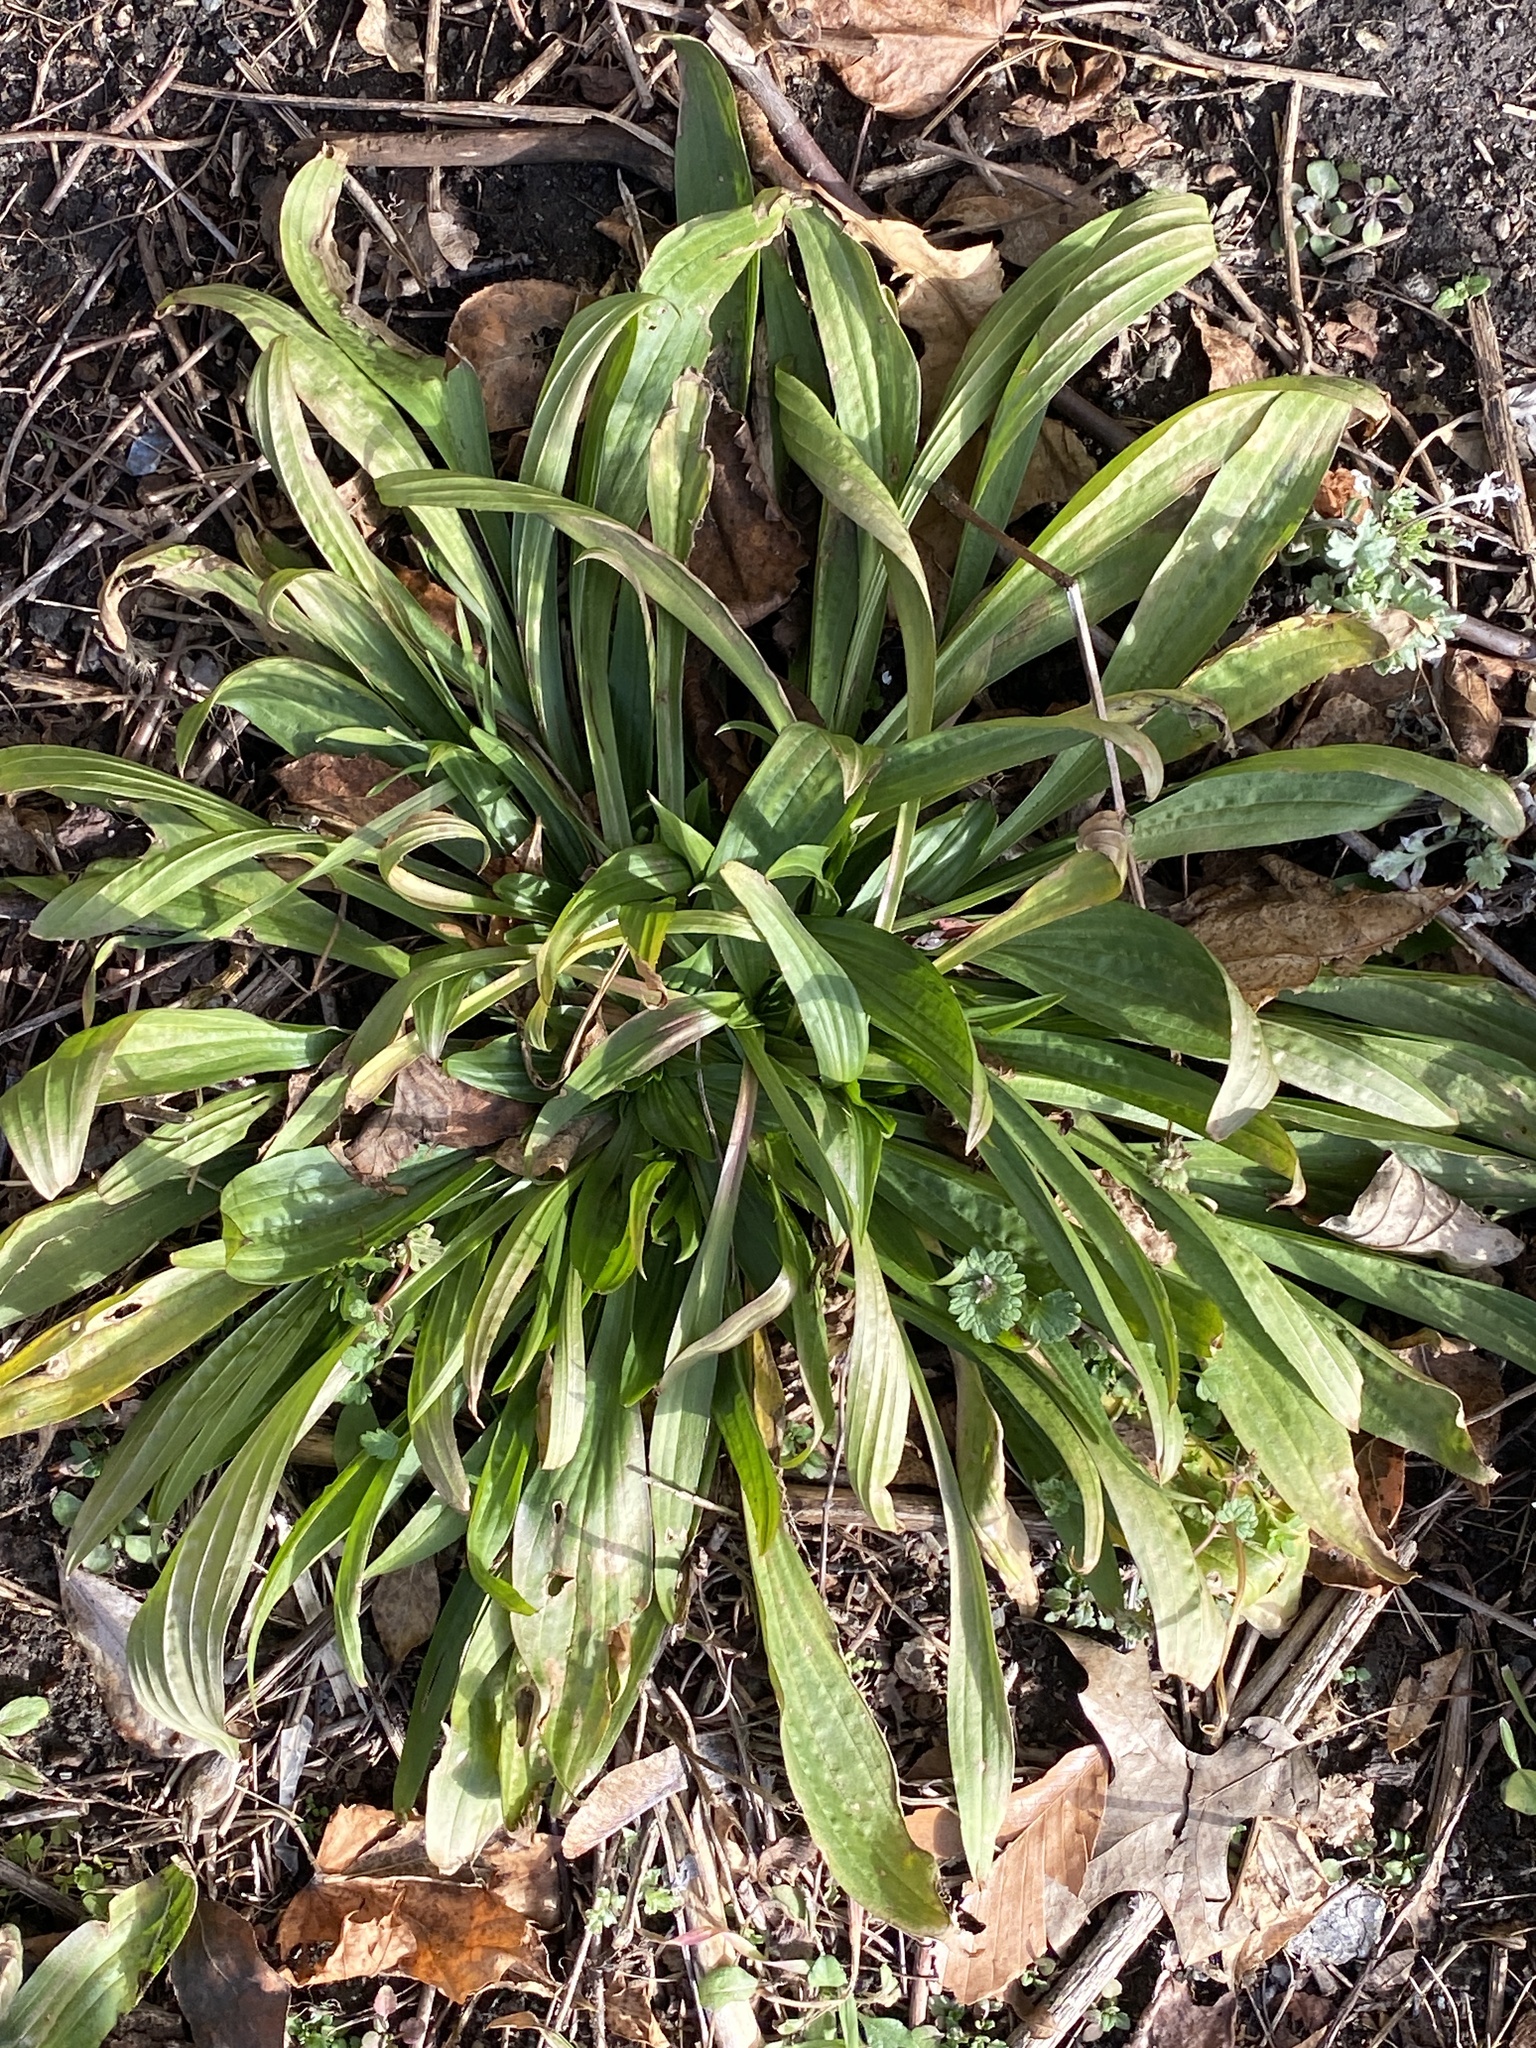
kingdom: Plantae
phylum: Tracheophyta
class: Magnoliopsida
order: Lamiales
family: Plantaginaceae
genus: Plantago
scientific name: Plantago lanceolata
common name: Ribwort plantain
